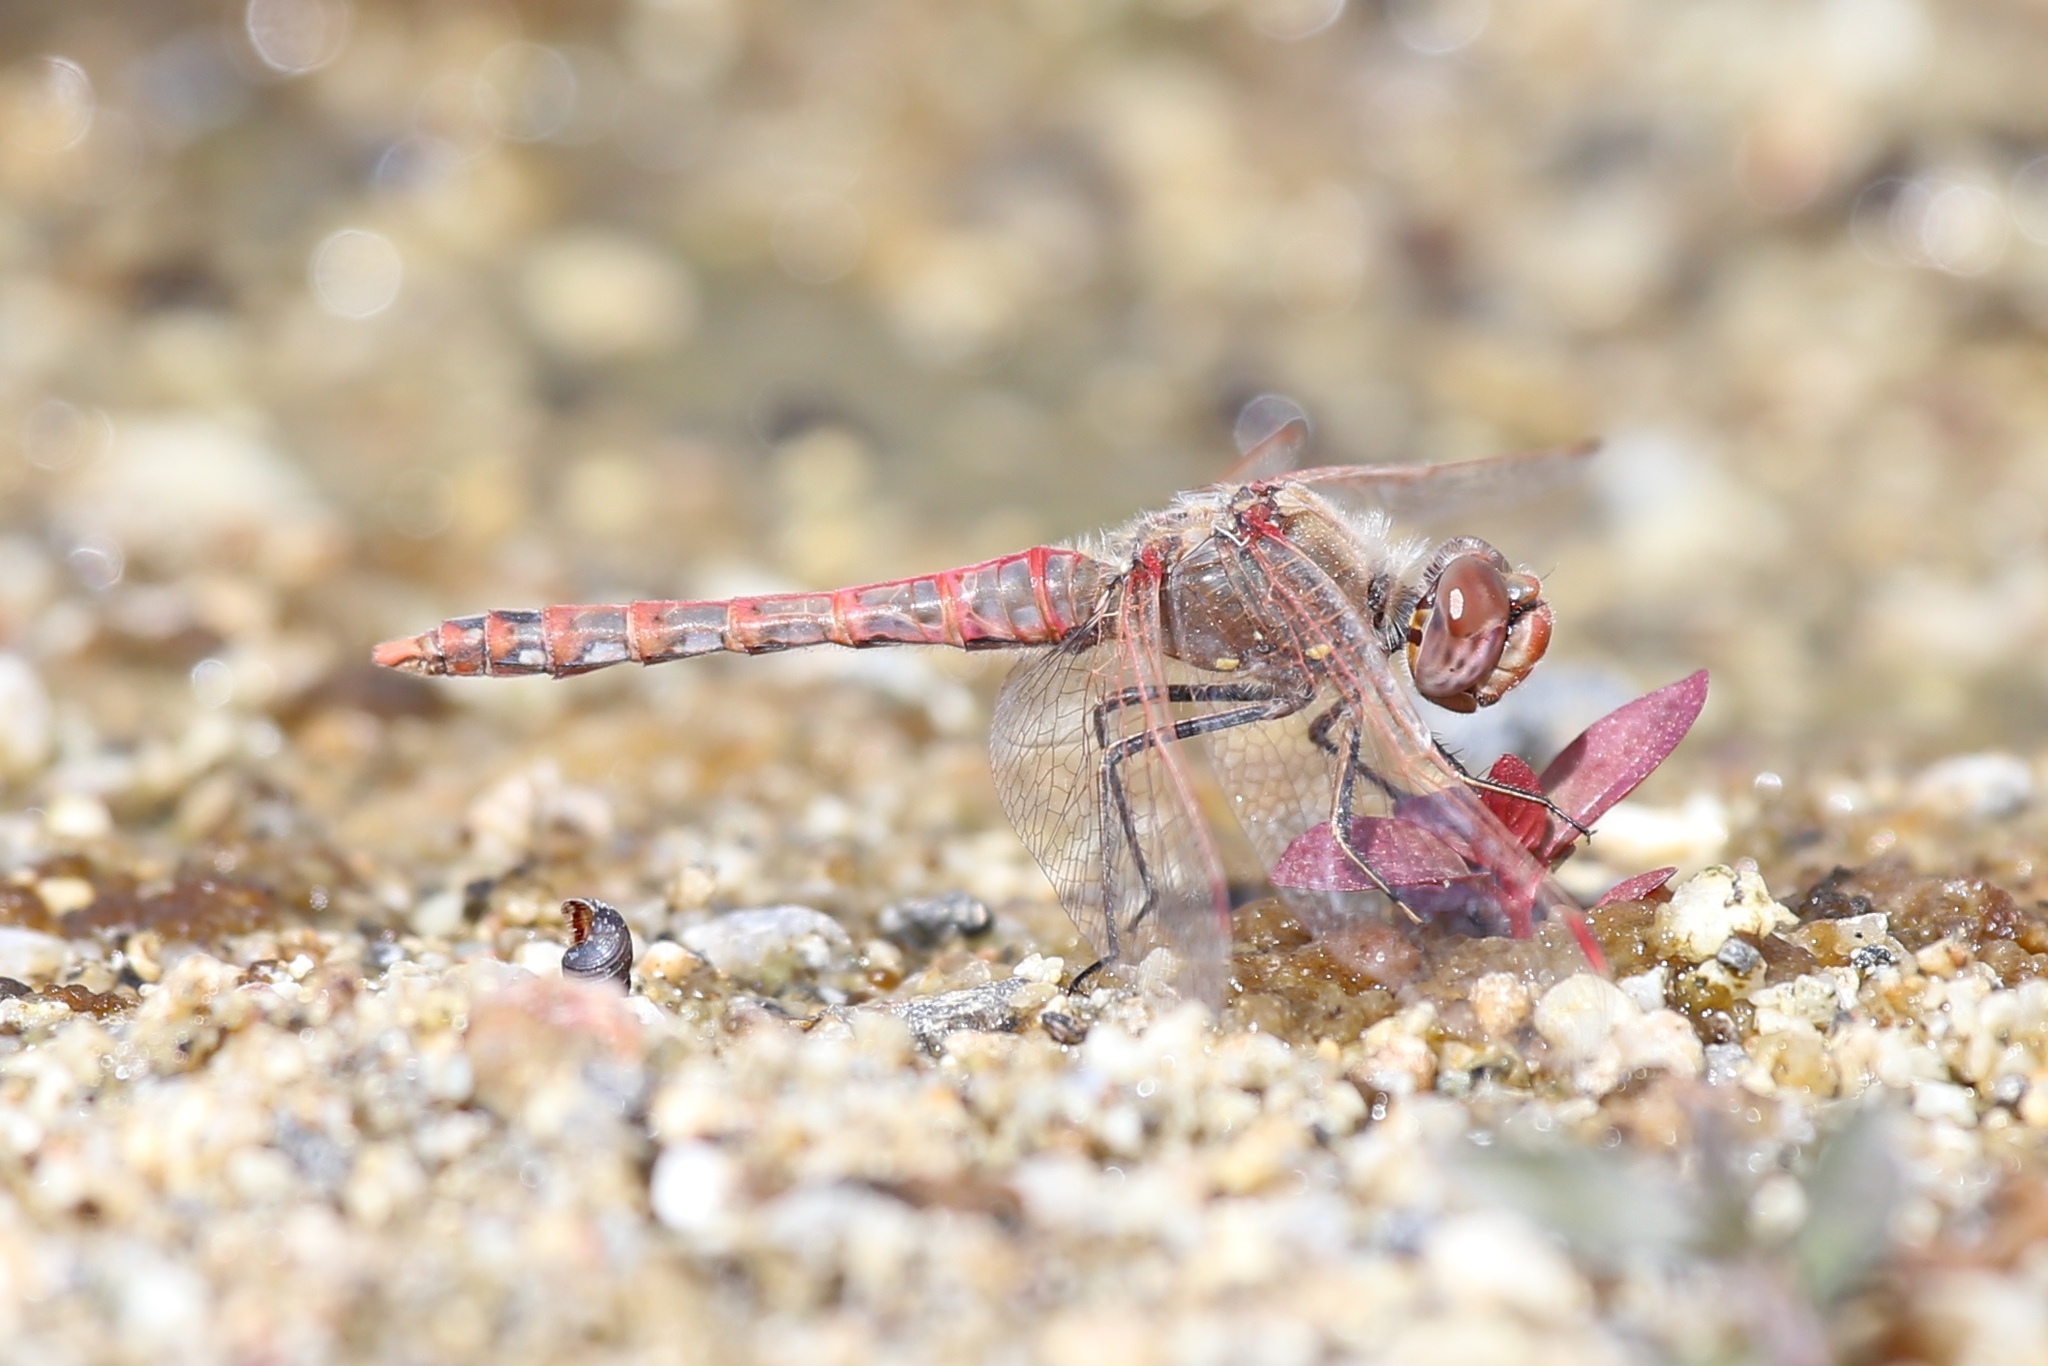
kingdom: Animalia
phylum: Arthropoda
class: Insecta
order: Odonata
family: Libellulidae
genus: Sympetrum
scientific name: Sympetrum corruptum
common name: Variegated meadowhawk
